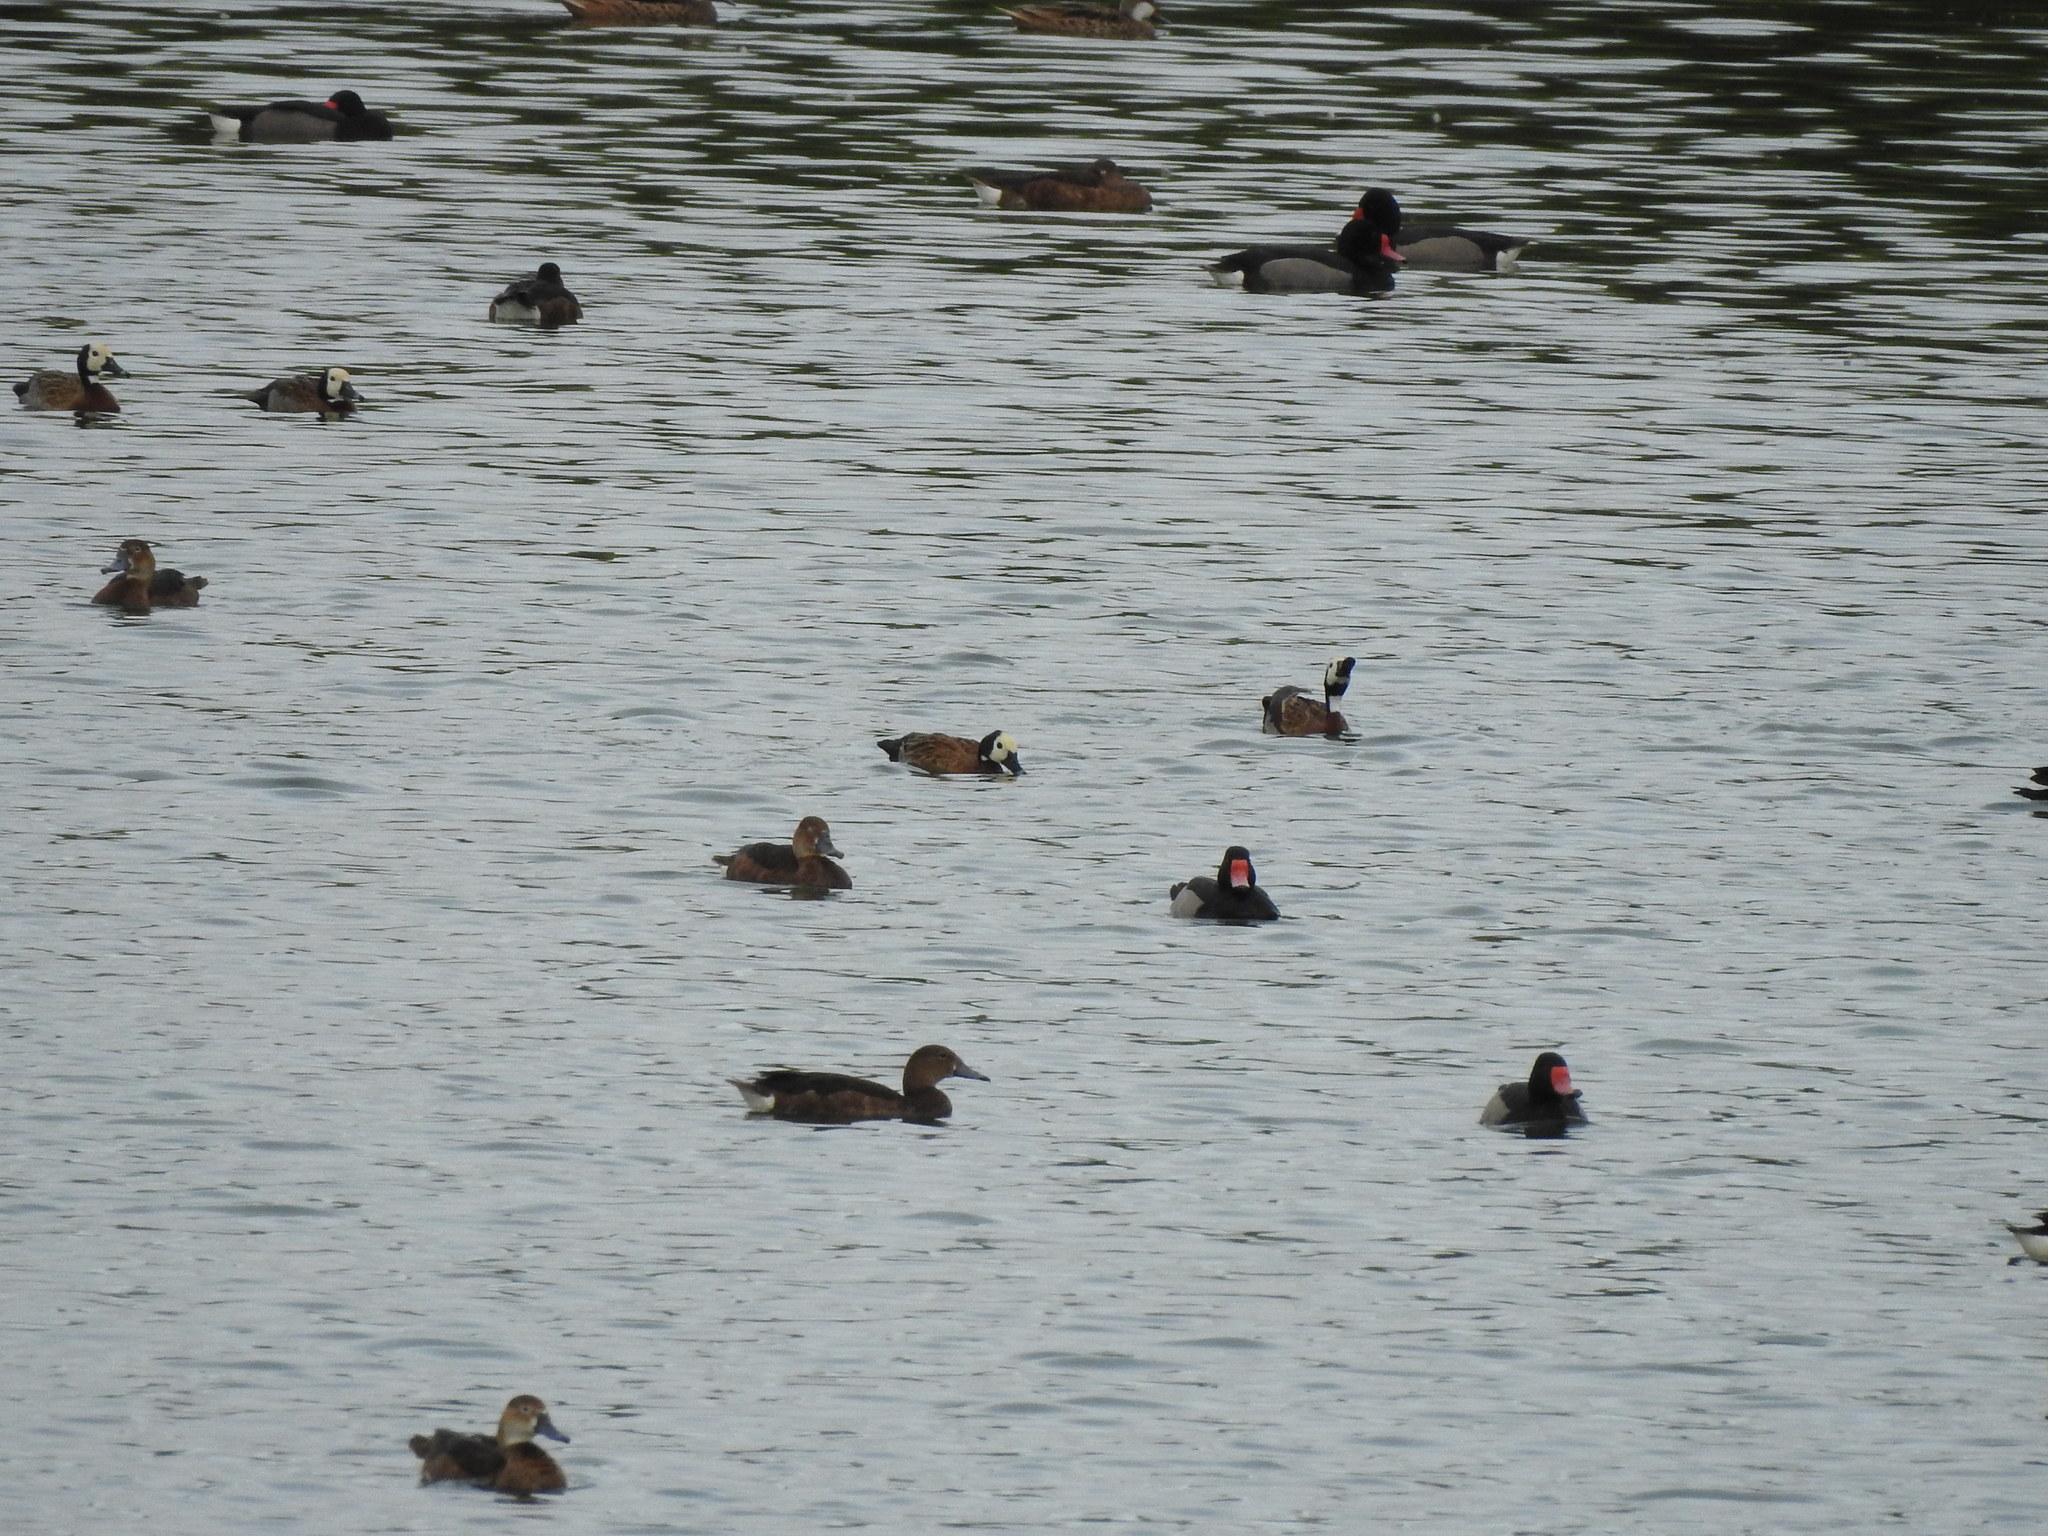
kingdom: Animalia
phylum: Chordata
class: Aves
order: Anseriformes
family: Anatidae
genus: Netta
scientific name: Netta peposaca
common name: Rosy-billed pochard
